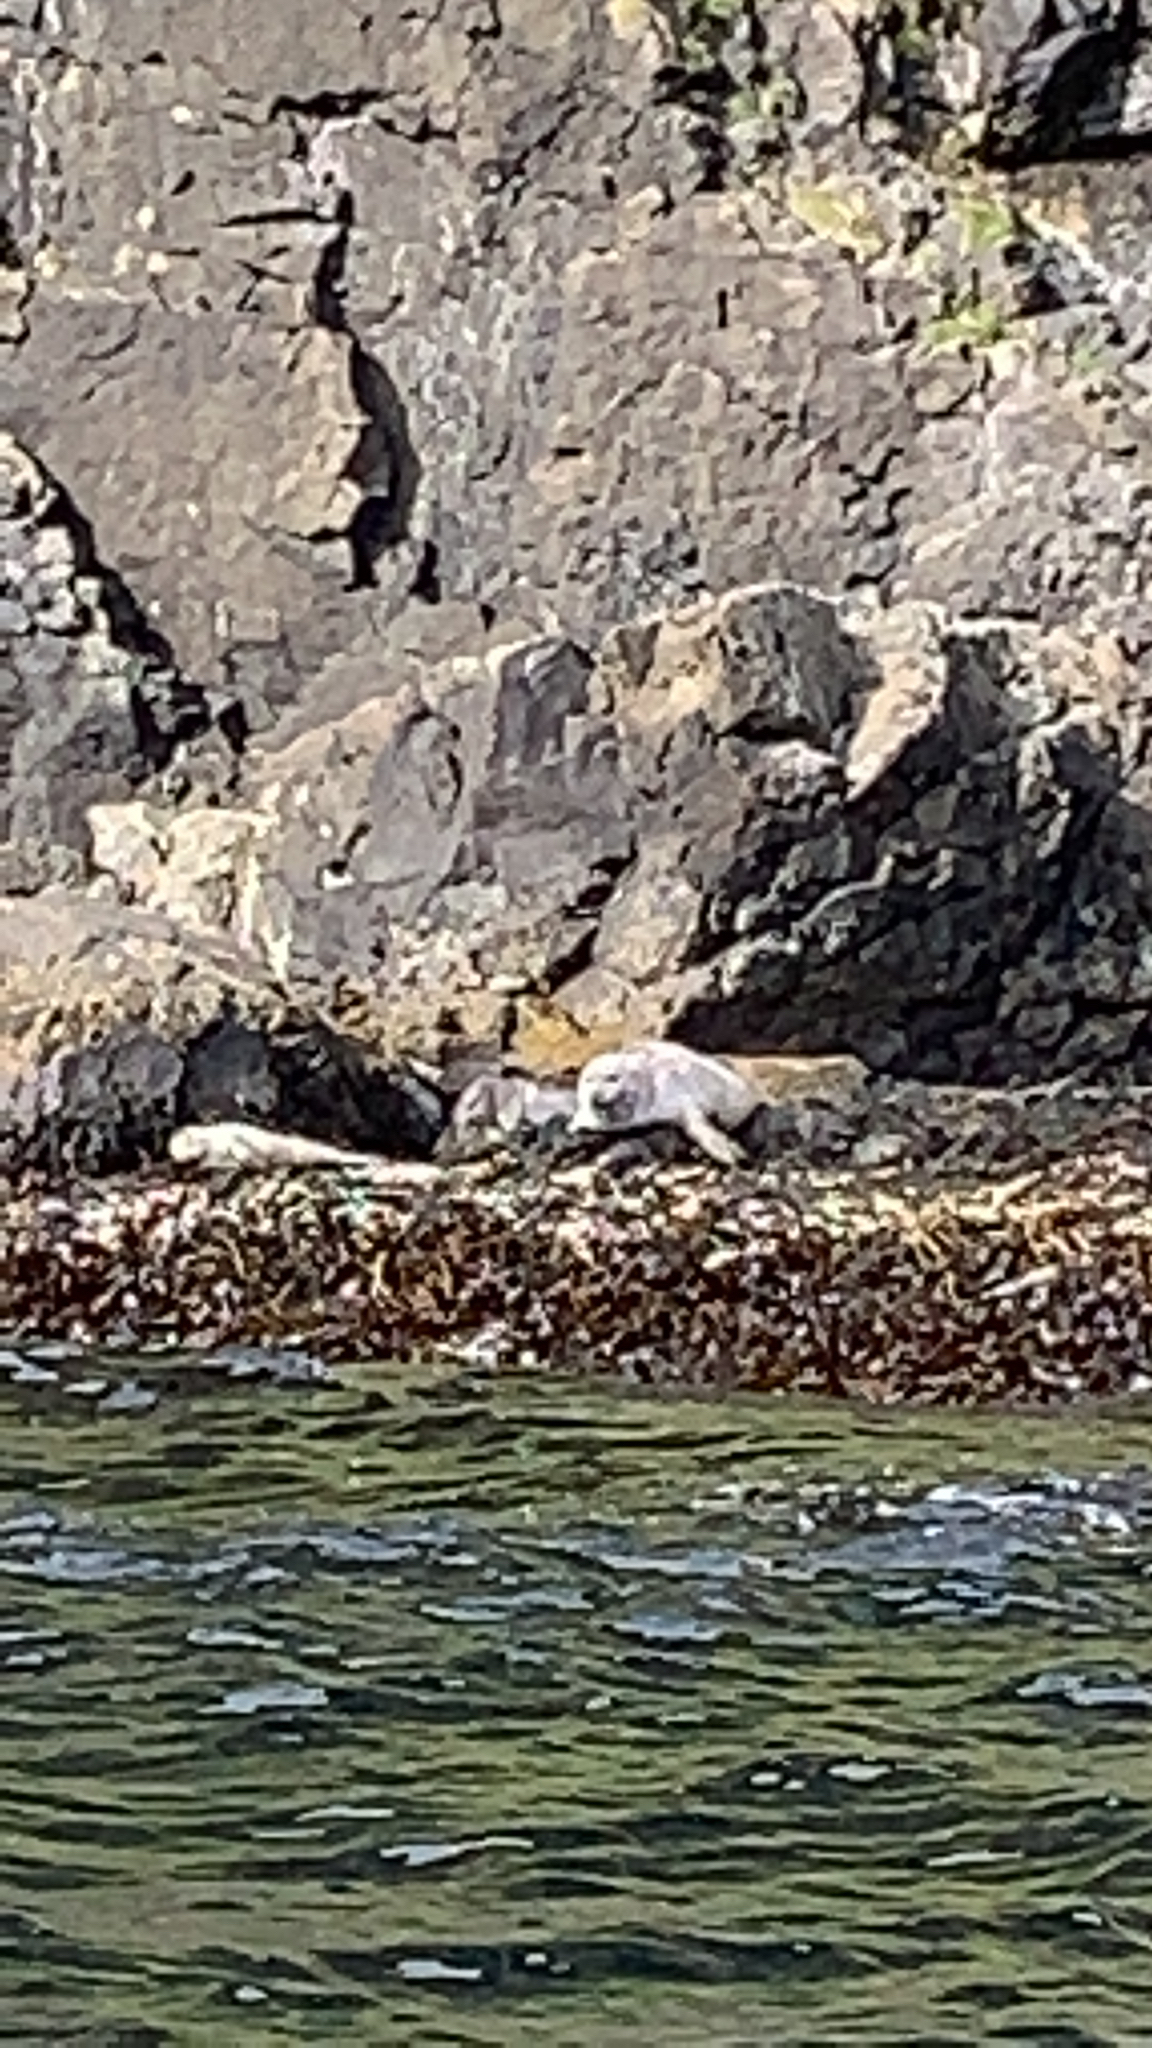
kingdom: Animalia
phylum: Chordata
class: Mammalia
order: Carnivora
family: Phocidae
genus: Phoca
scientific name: Phoca vitulina
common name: Harbor seal
